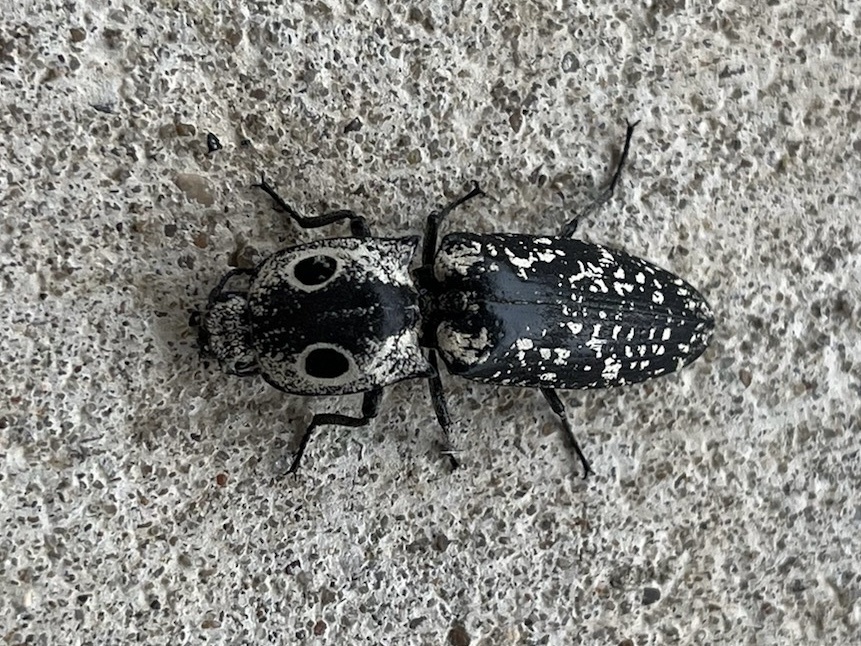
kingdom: Animalia
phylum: Arthropoda
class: Insecta
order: Coleoptera
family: Elateridae
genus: Alaus
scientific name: Alaus
